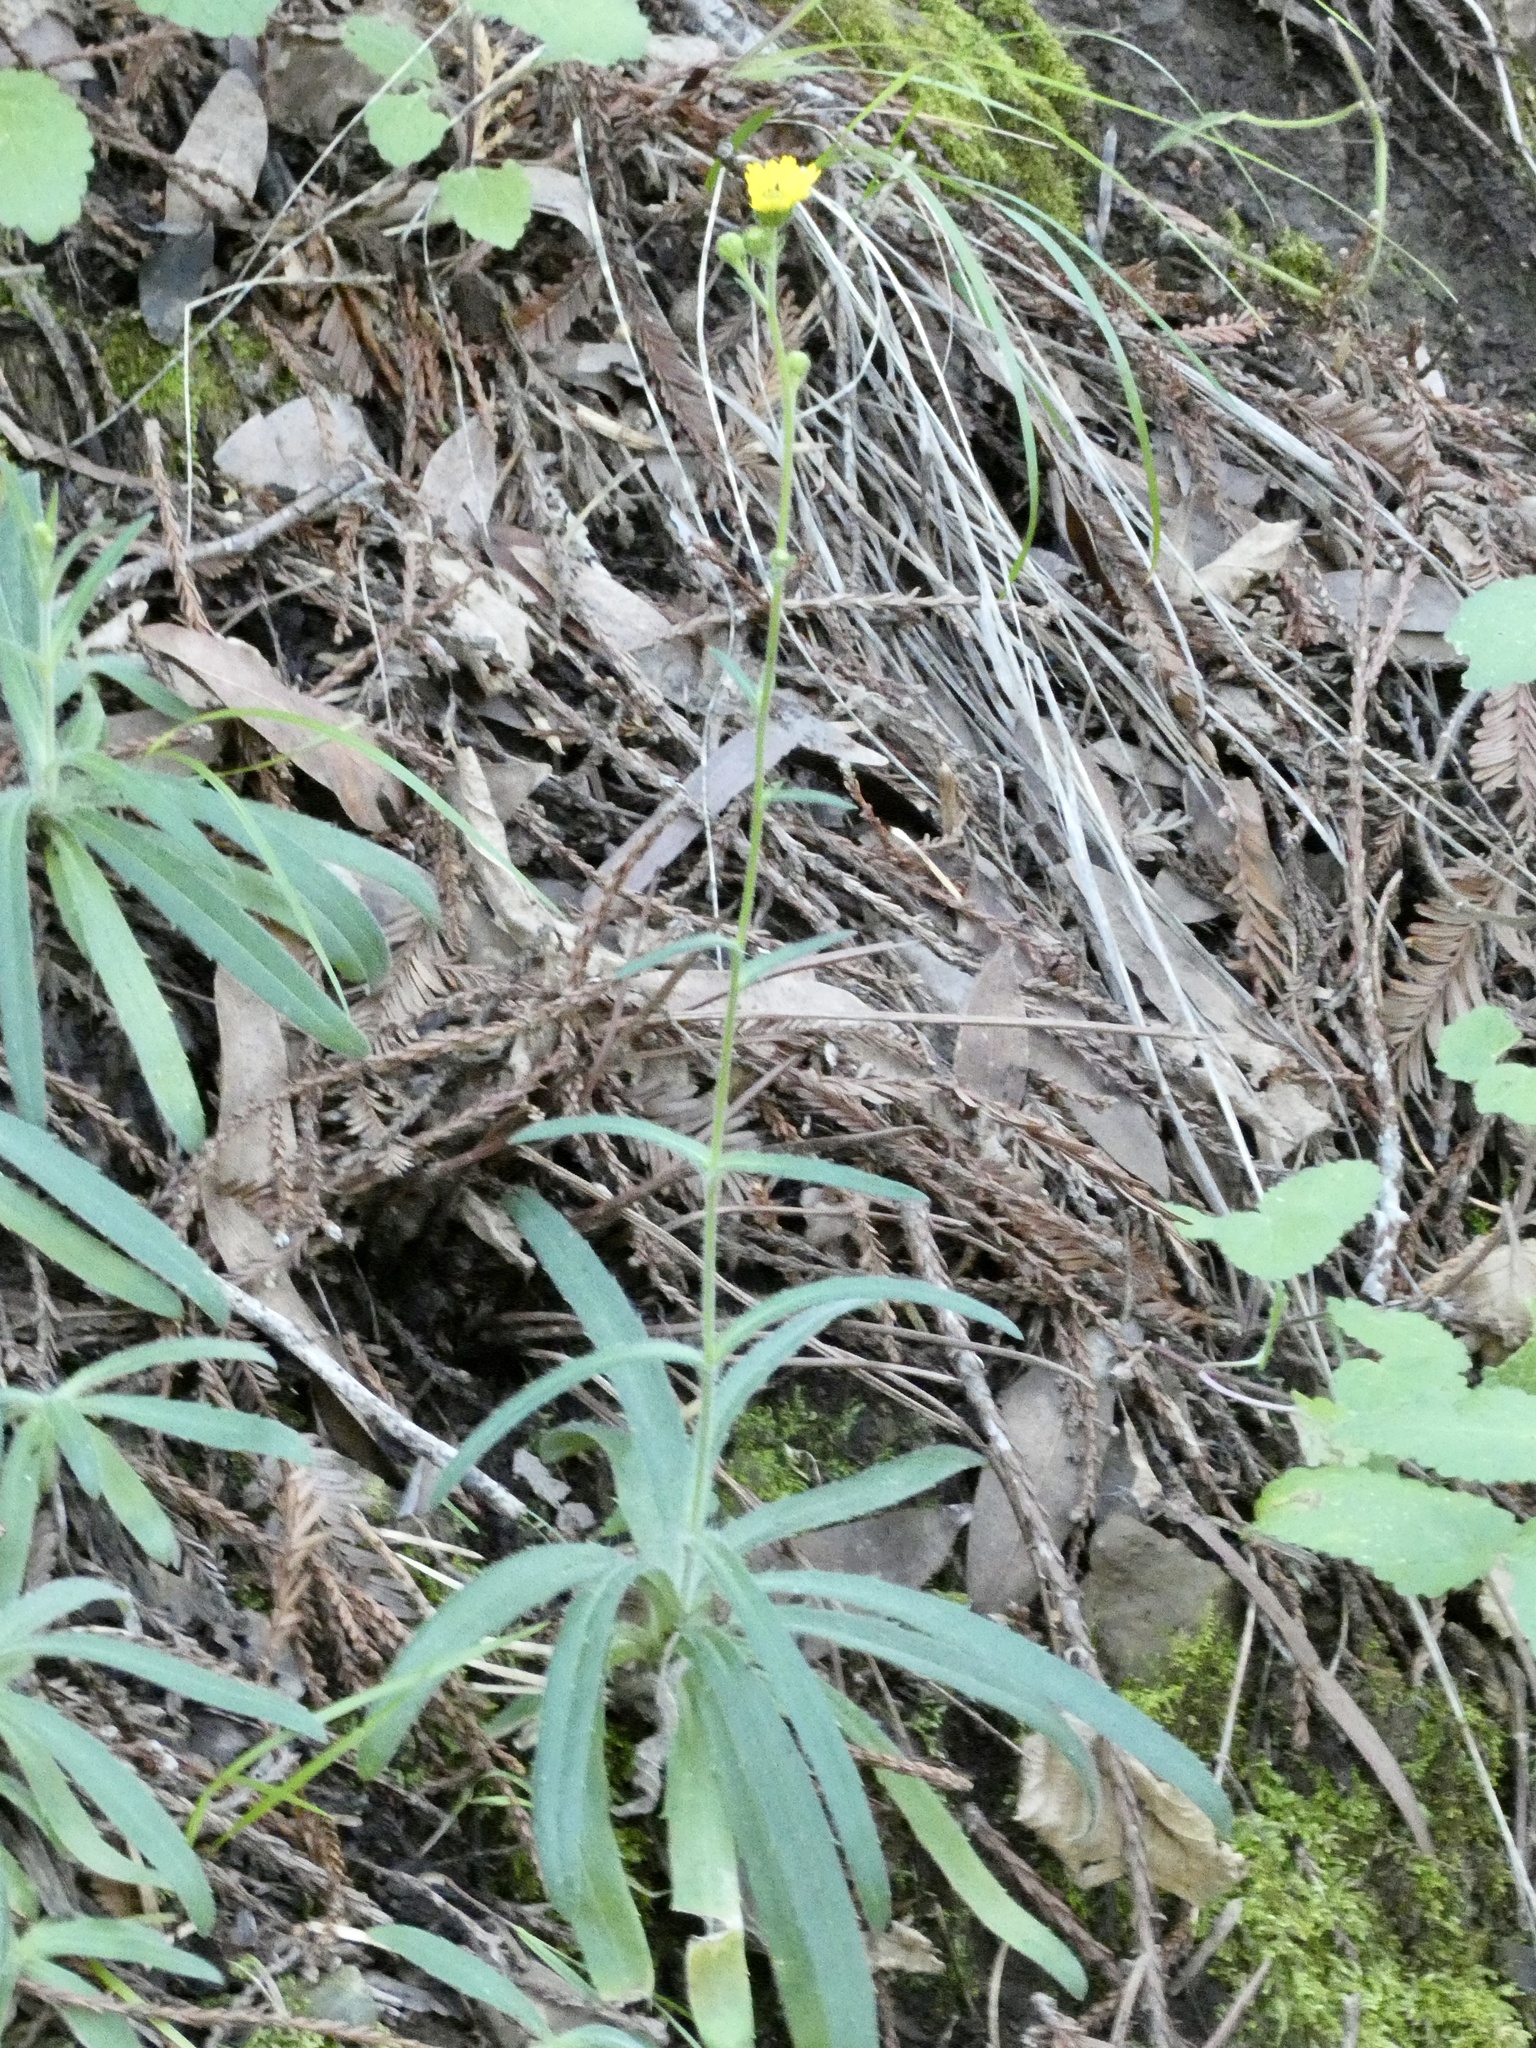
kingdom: Plantae
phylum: Tracheophyta
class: Magnoliopsida
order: Asterales
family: Asteraceae
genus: Anisocarpus
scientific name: Anisocarpus madioides
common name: Woodland madia
